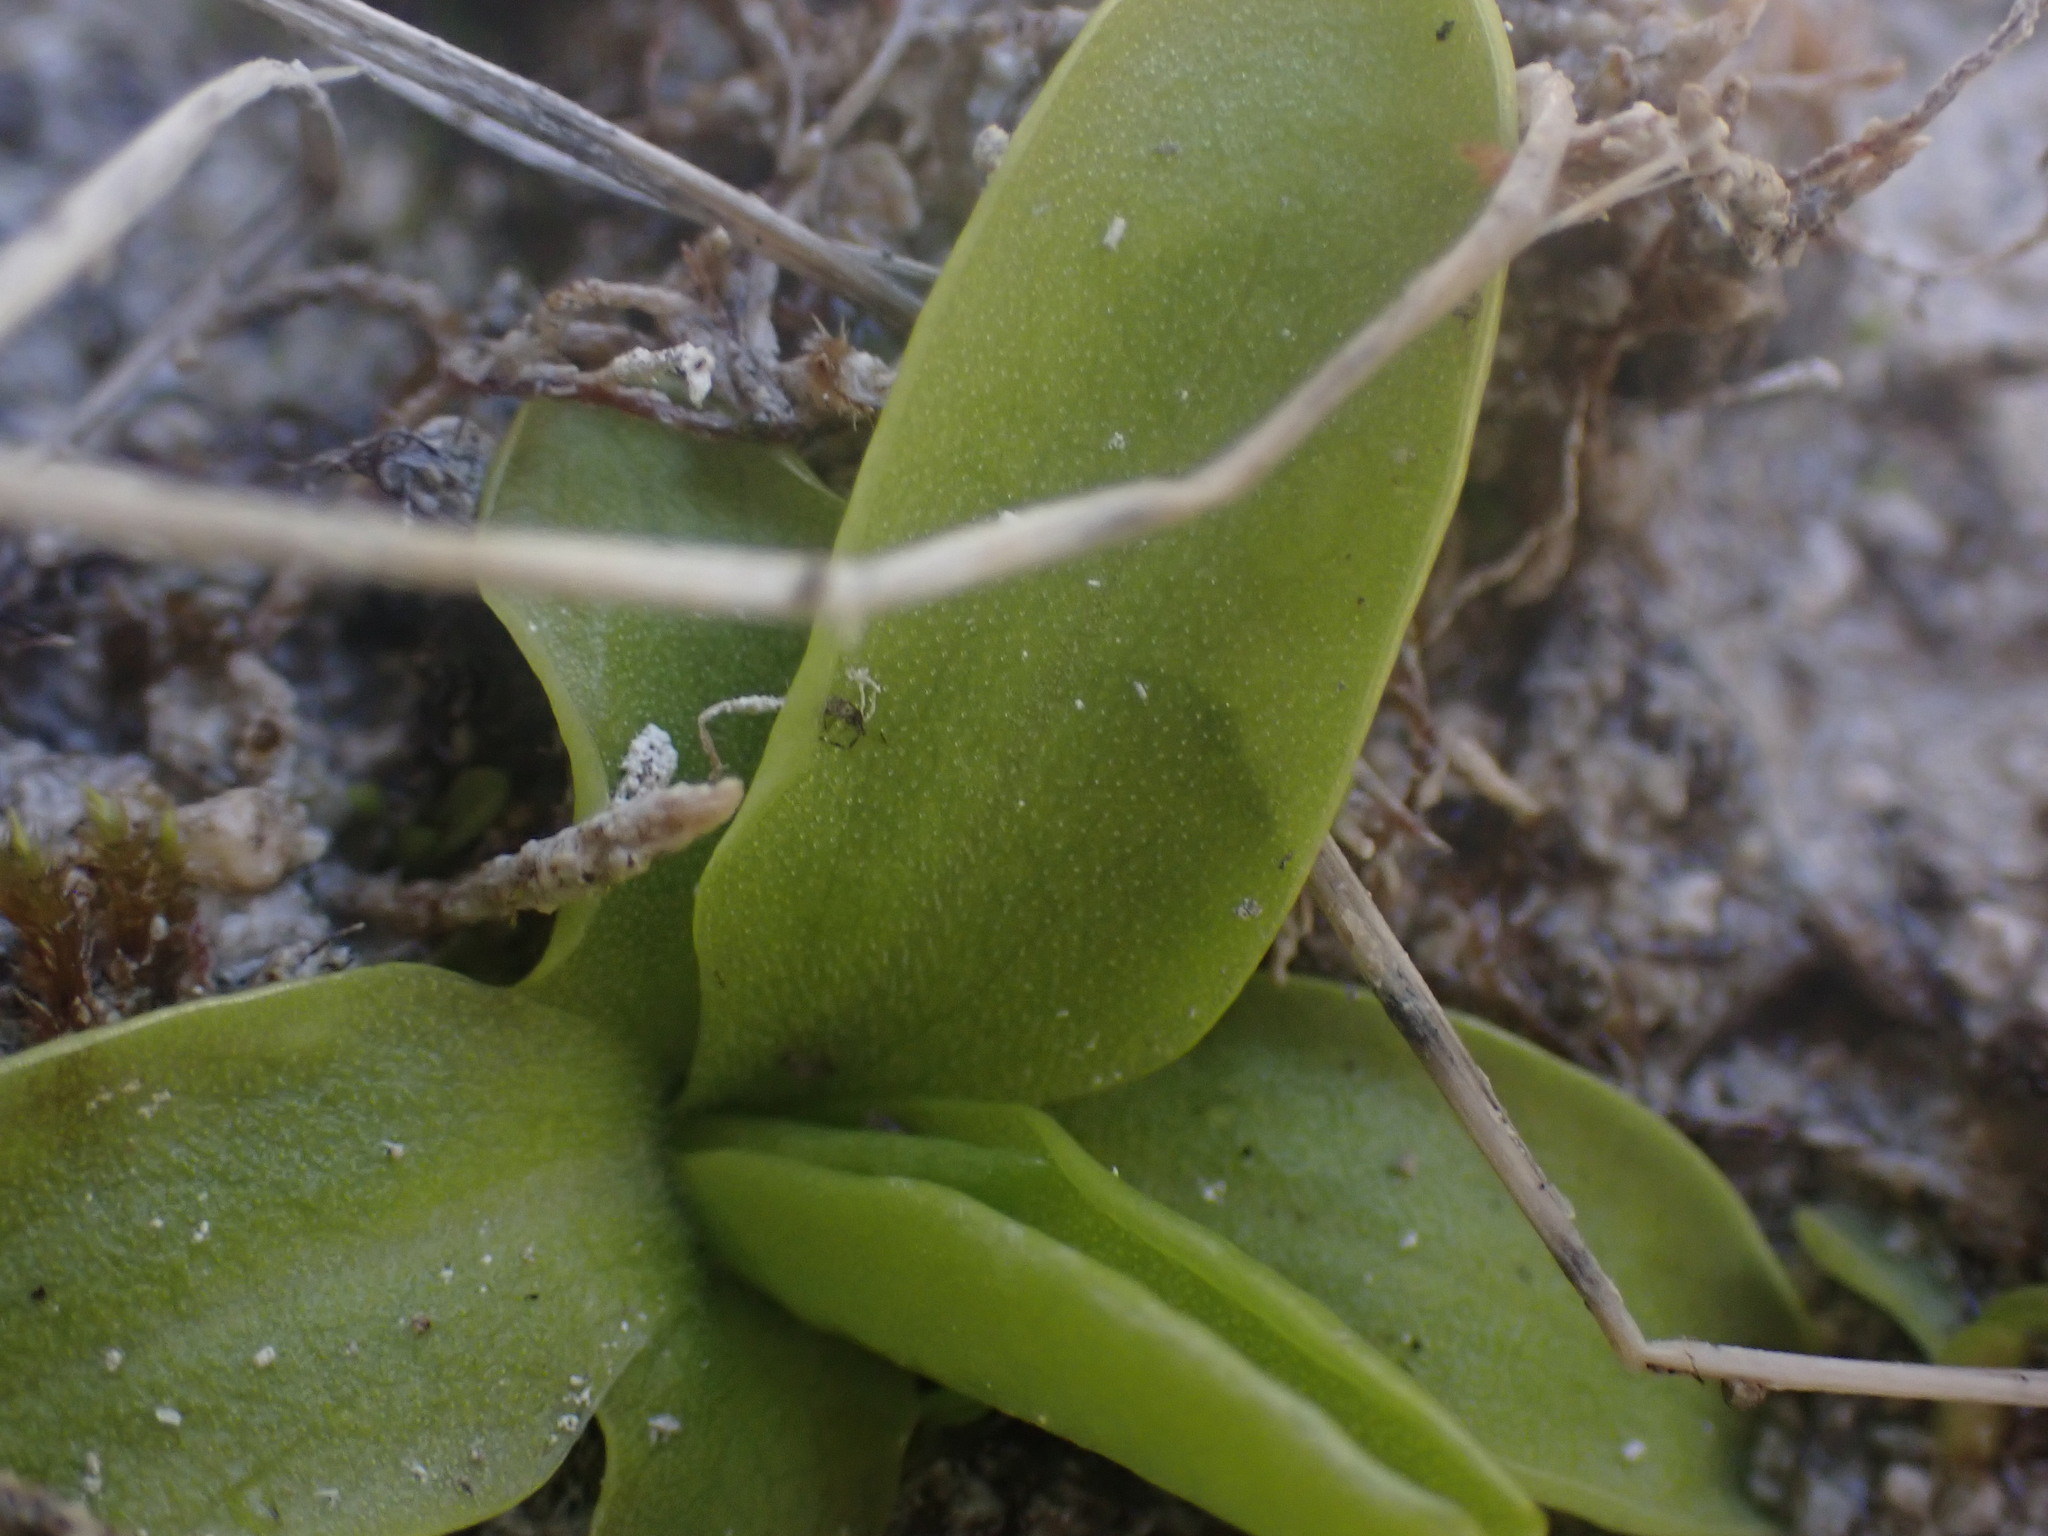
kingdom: Plantae
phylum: Tracheophyta
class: Magnoliopsida
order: Lamiales
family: Lentibulariaceae
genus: Pinguicula
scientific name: Pinguicula macroceras
